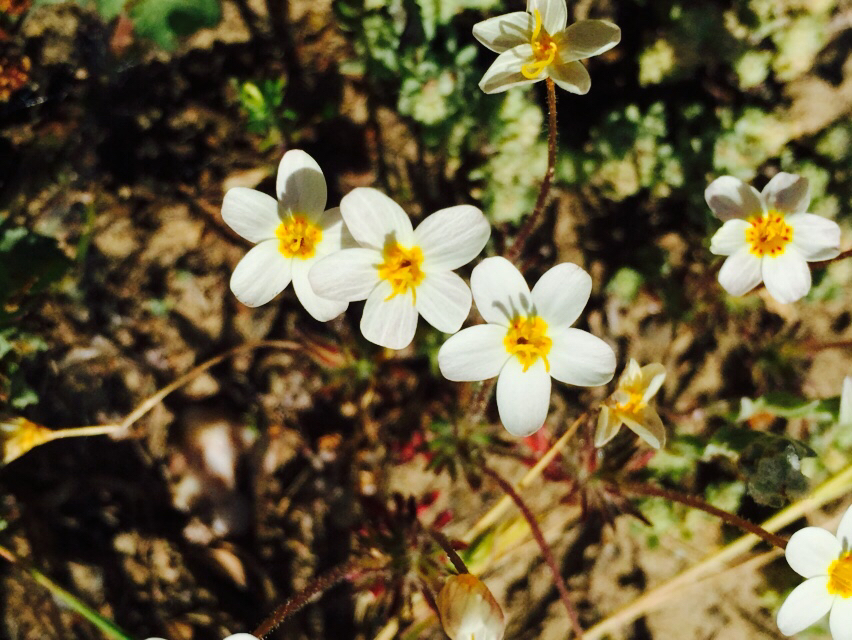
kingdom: Plantae
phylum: Tracheophyta
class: Magnoliopsida
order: Ericales
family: Polemoniaceae
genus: Leptosiphon
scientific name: Leptosiphon parviflorus
